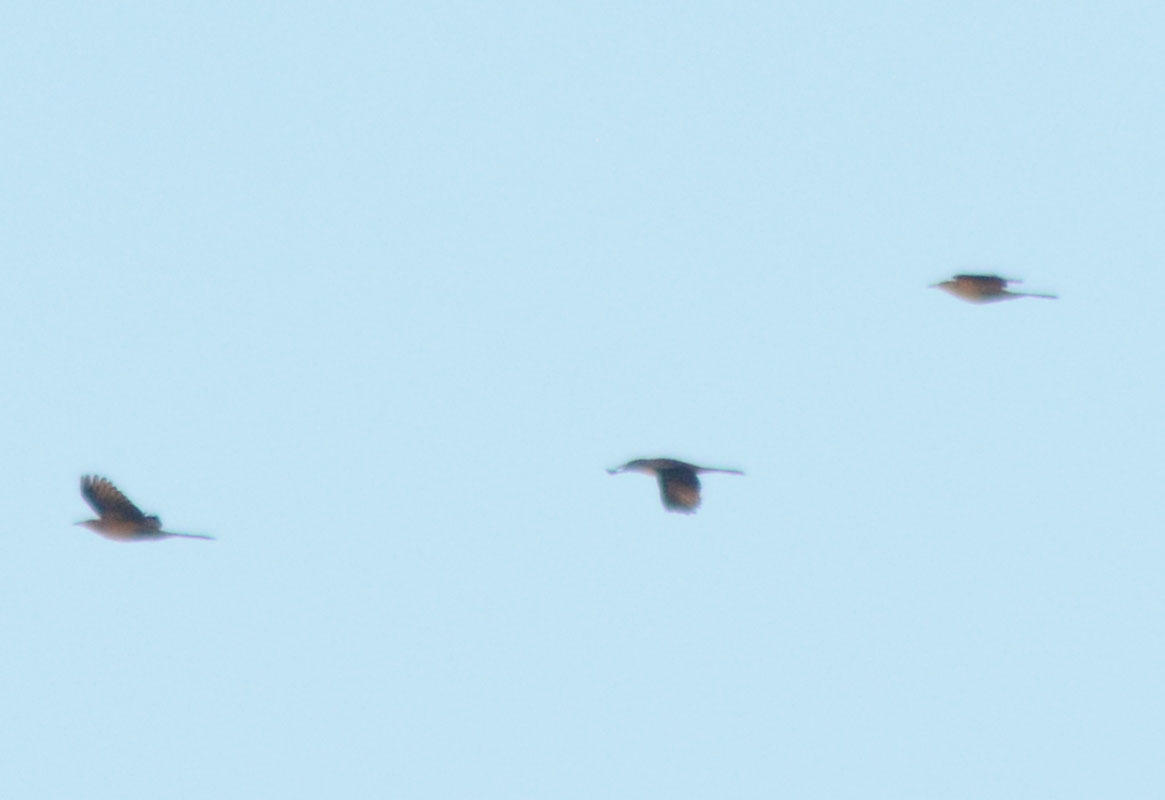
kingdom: Animalia
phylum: Chordata
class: Aves
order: Passeriformes
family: Icteridae
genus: Quiscalus
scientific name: Quiscalus mexicanus
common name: Great-tailed grackle
